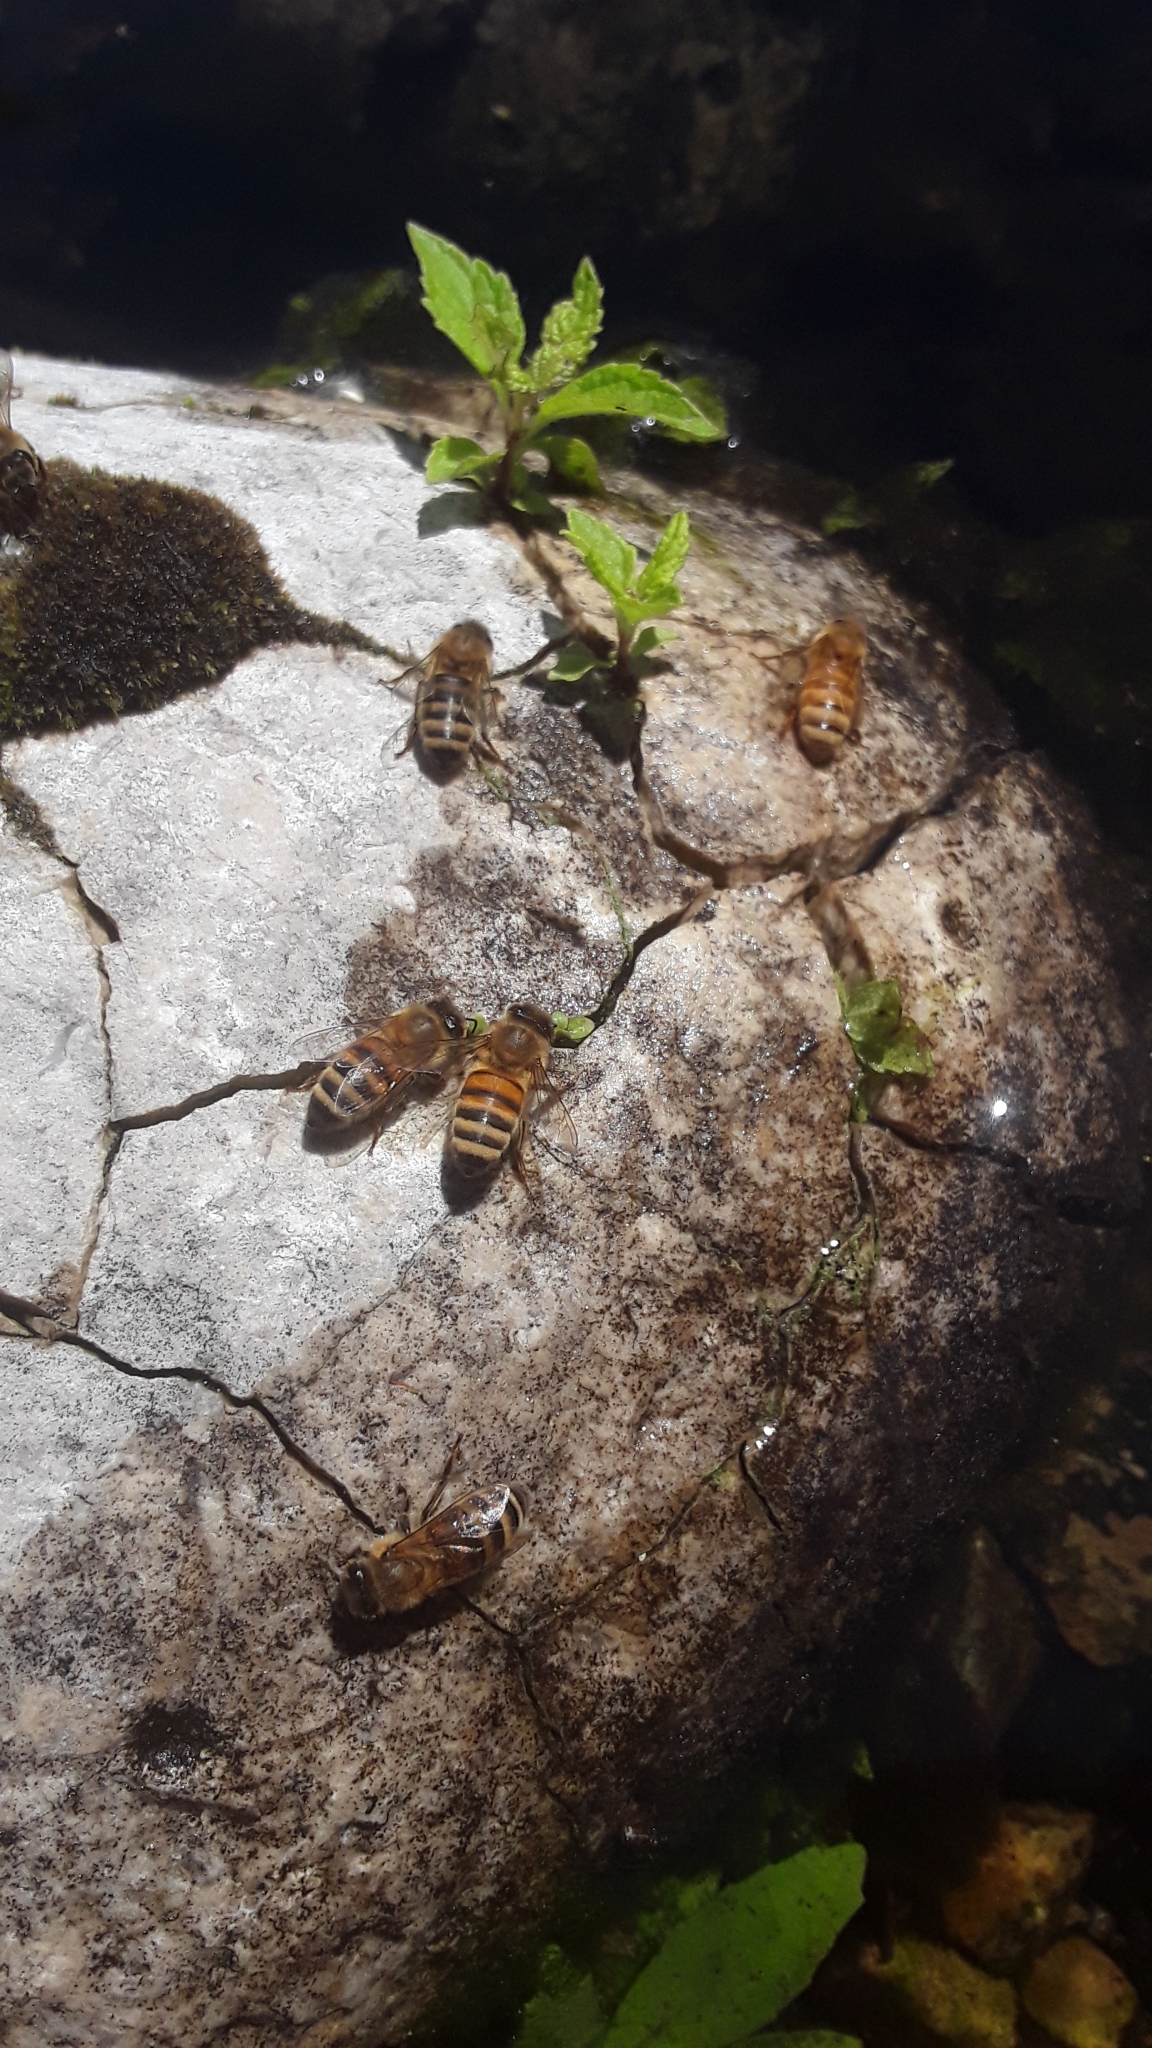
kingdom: Animalia
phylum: Arthropoda
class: Insecta
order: Hymenoptera
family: Apidae
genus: Apis
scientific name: Apis mellifera
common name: Honey bee
